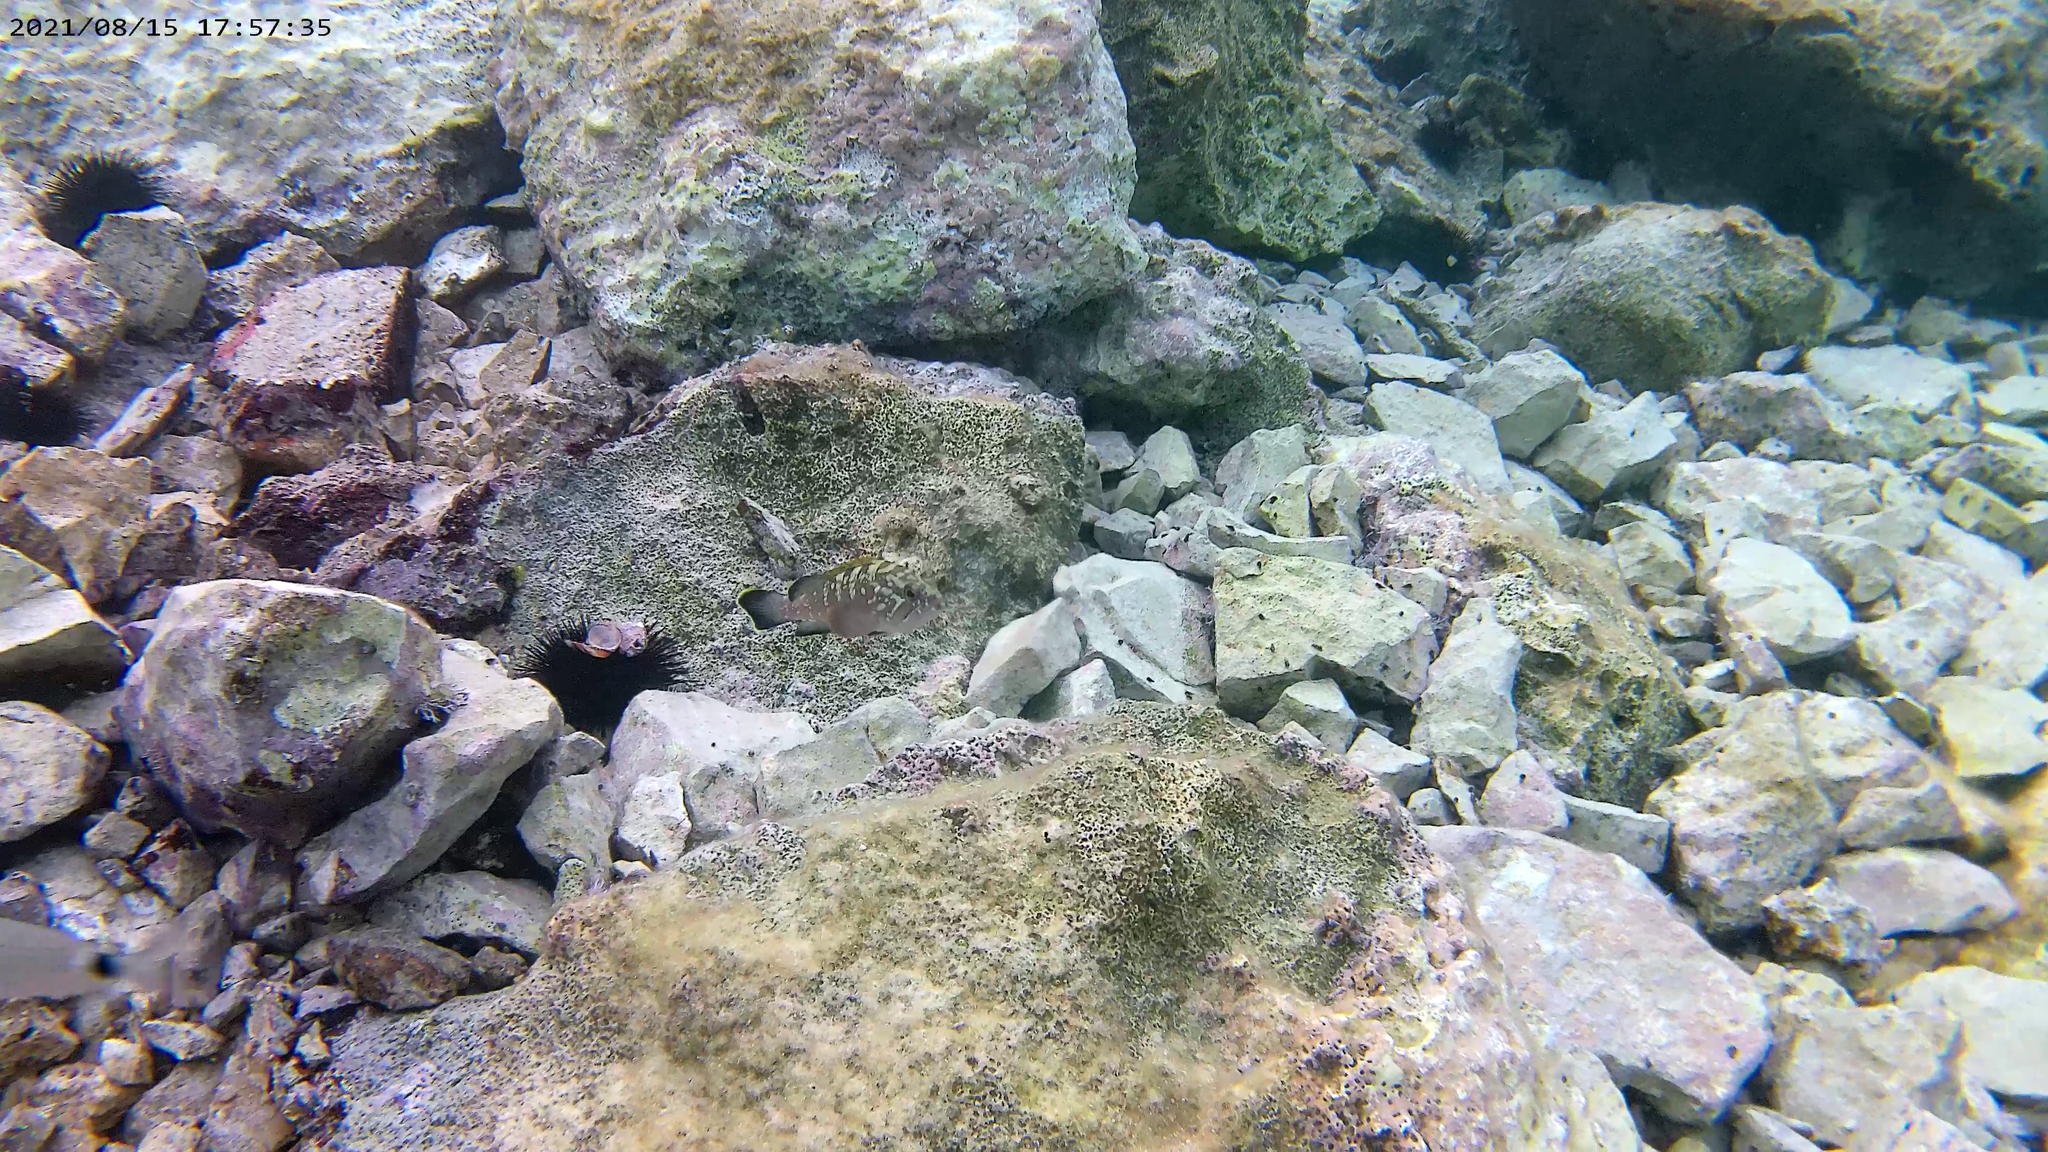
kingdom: Animalia
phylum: Chordata
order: Perciformes
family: Serranidae
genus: Epinephelus
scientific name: Epinephelus marginatus
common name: Dusky grouper
